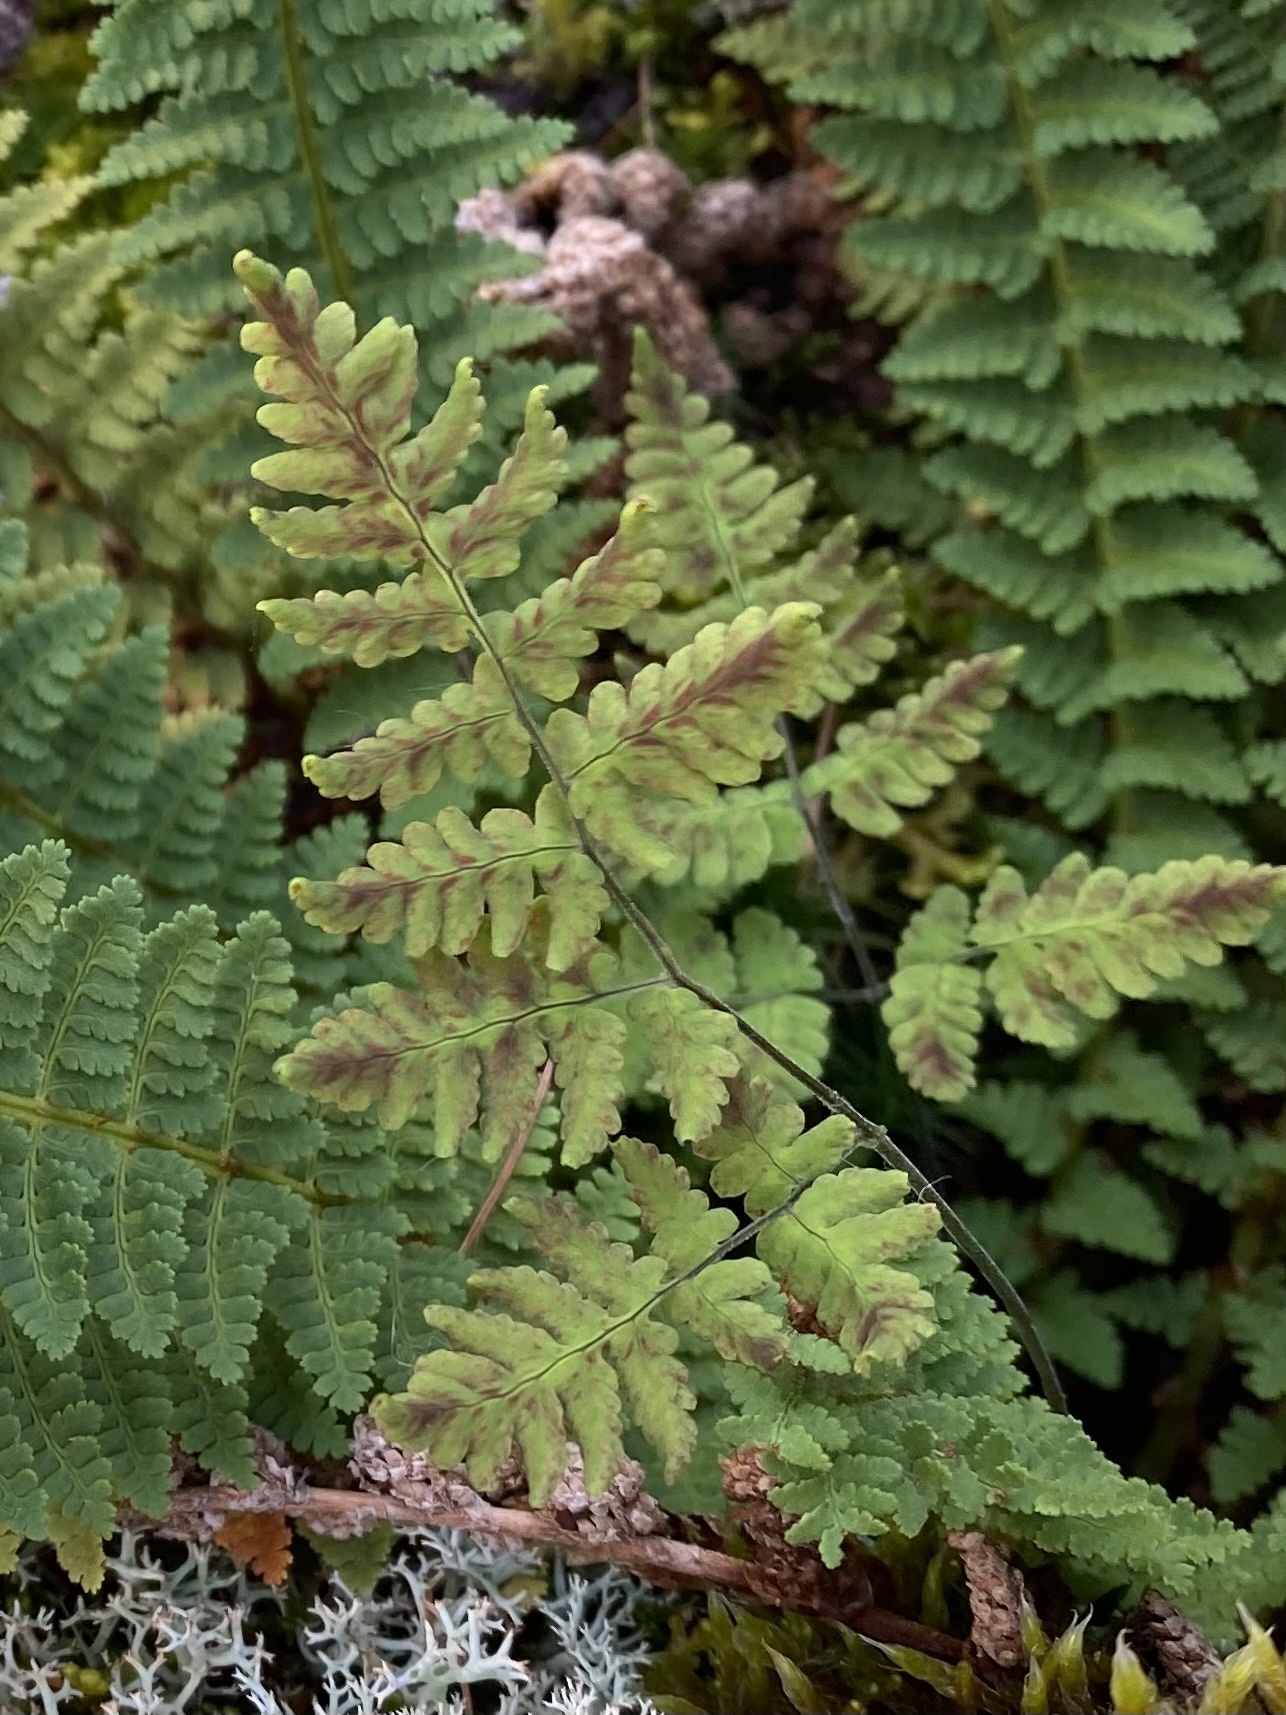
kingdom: Plantae
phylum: Tracheophyta
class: Polypodiopsida
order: Polypodiales
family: Cystopteridaceae
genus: Gymnocarpium
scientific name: Gymnocarpium jessoense
